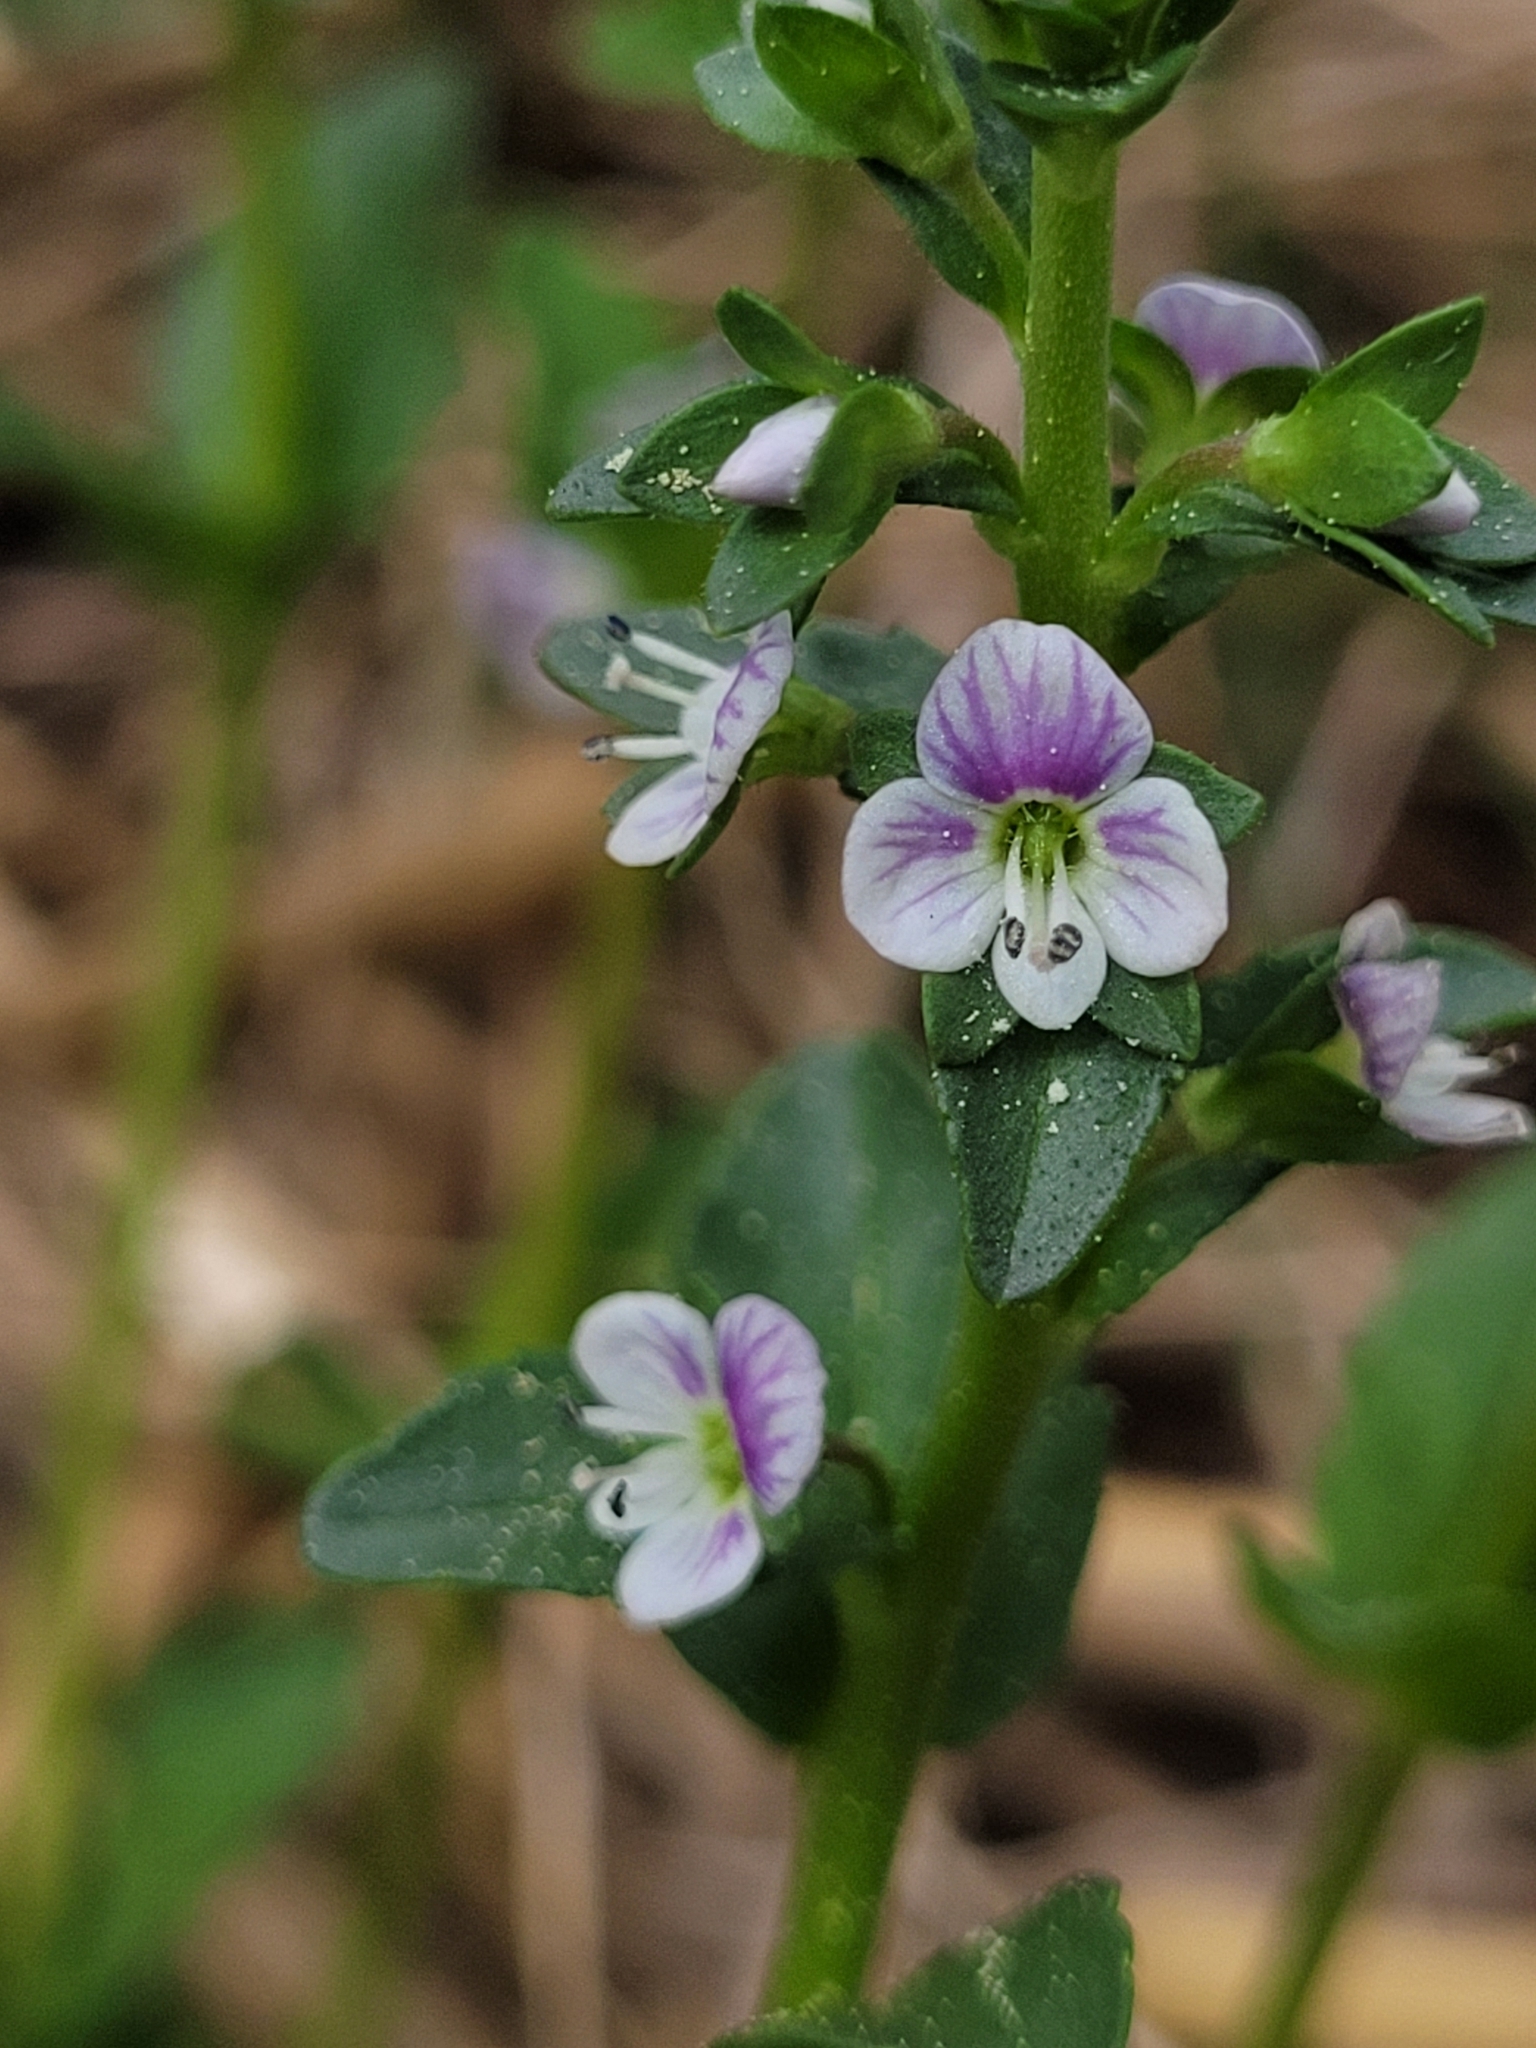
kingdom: Plantae
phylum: Tracheophyta
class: Magnoliopsida
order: Lamiales
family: Plantaginaceae
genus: Veronica
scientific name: Veronica serpyllifolia
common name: Thyme-leaved speedwell
